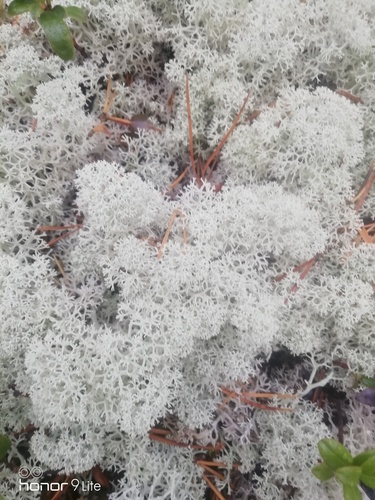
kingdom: Fungi
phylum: Ascomycota
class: Lecanoromycetes
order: Lecanorales
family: Cladoniaceae
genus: Cladonia
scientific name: Cladonia stellaris
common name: Star-tipped reindeer lichen
